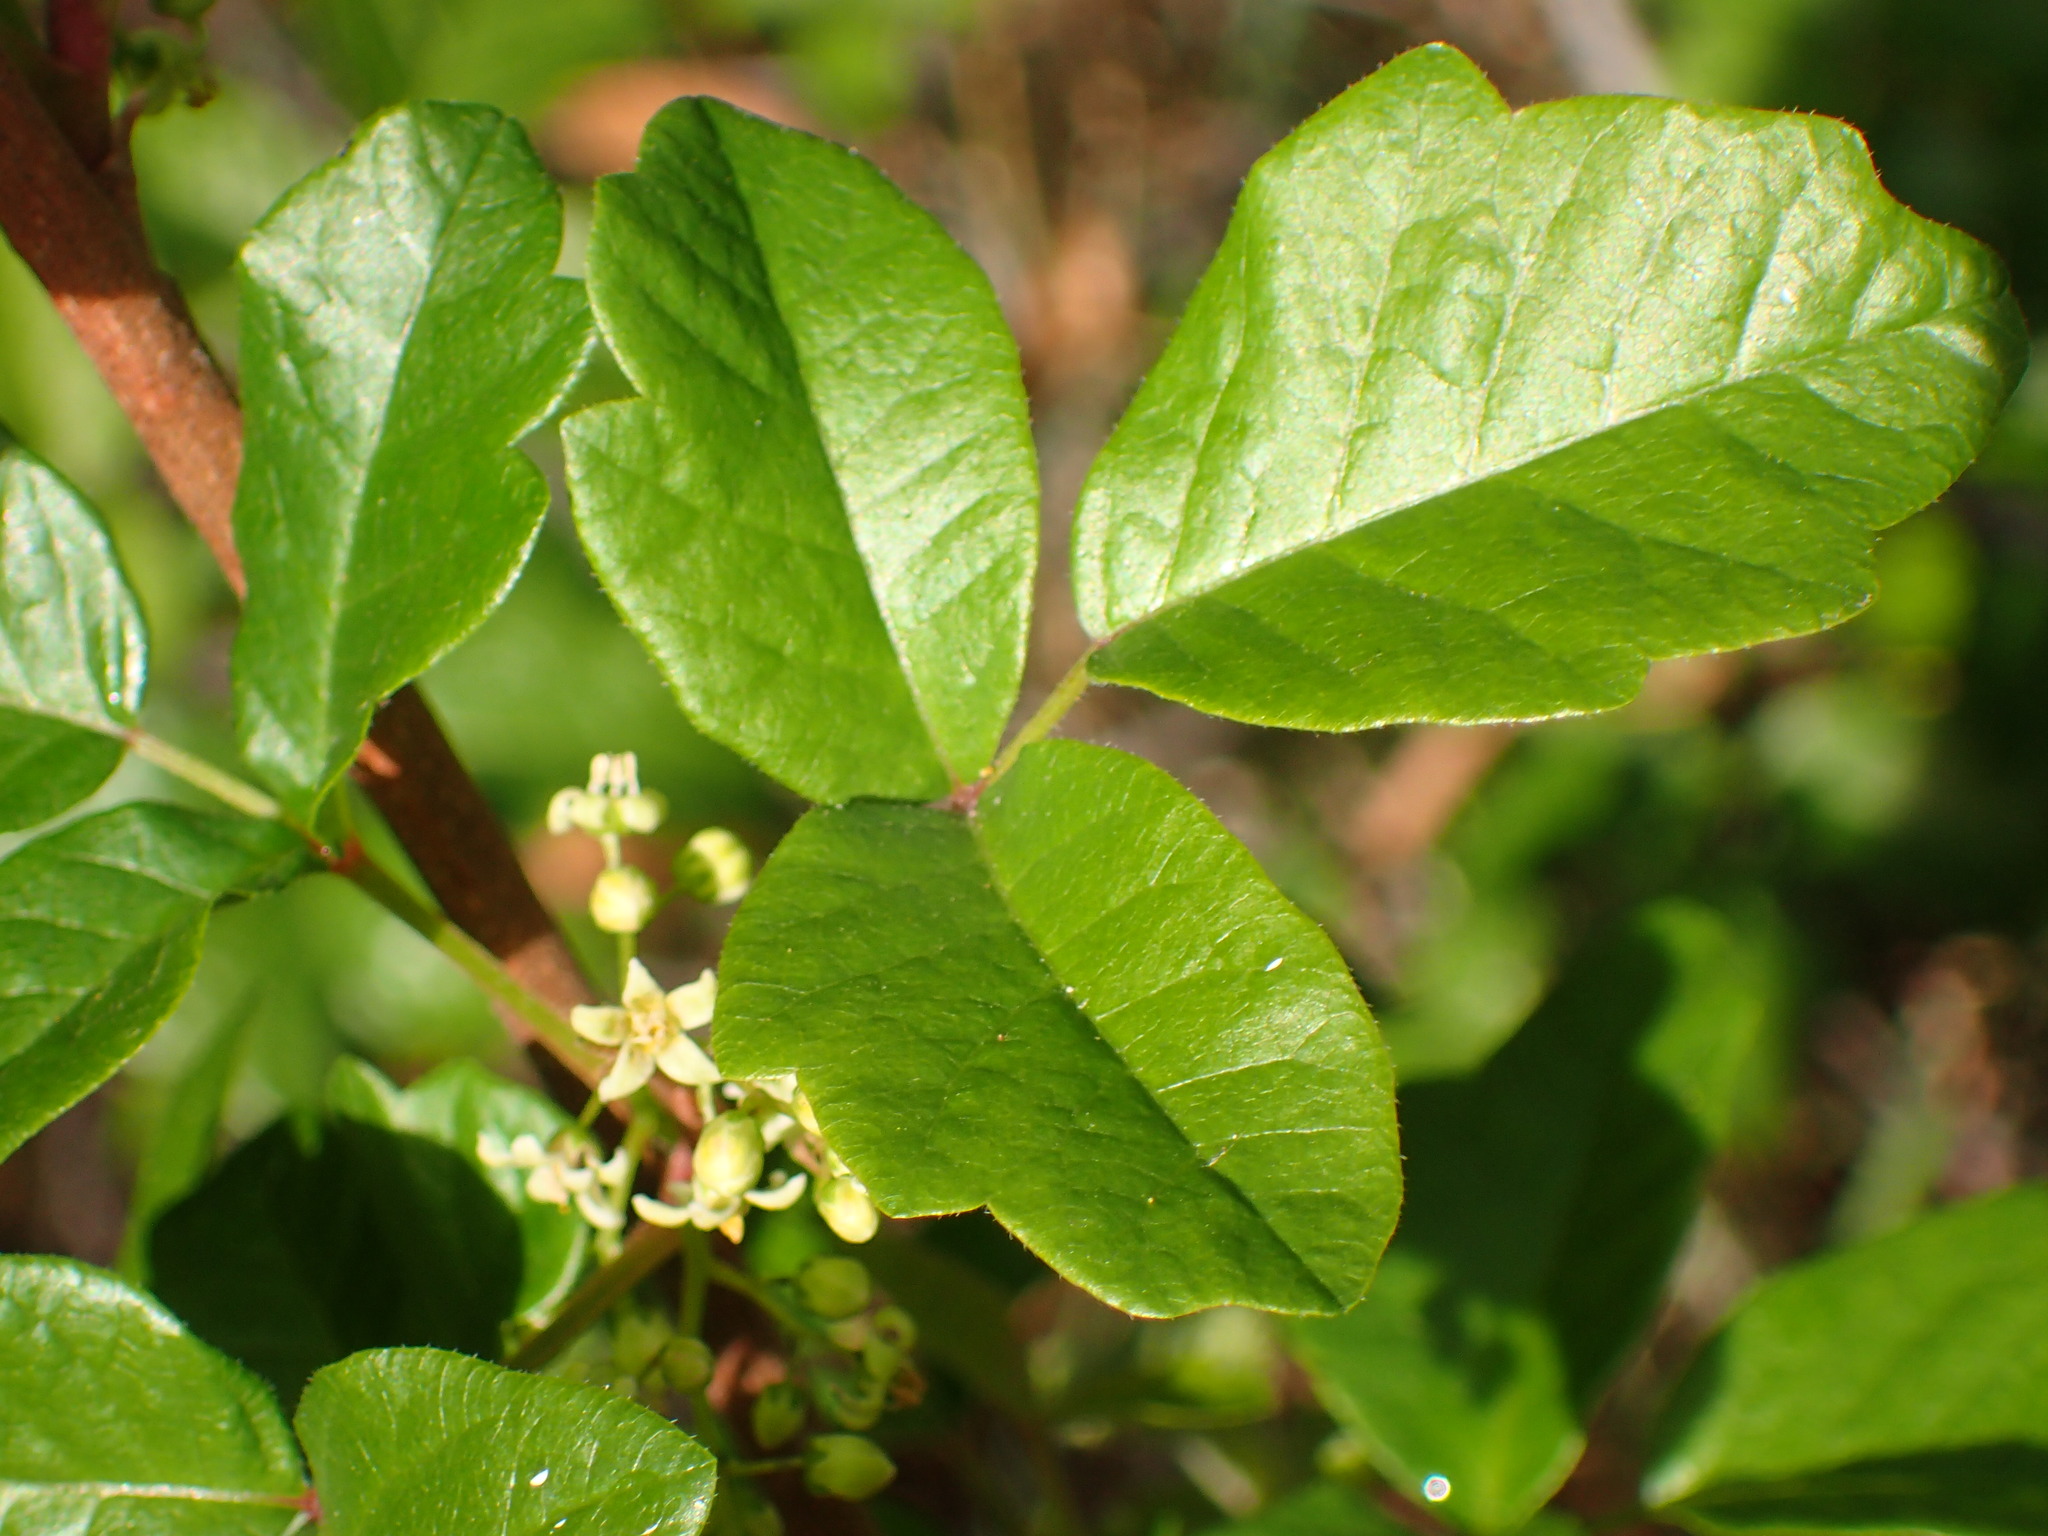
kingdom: Plantae
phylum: Tracheophyta
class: Magnoliopsida
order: Sapindales
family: Anacardiaceae
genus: Toxicodendron
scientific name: Toxicodendron diversilobum
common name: Pacific poison-oak
